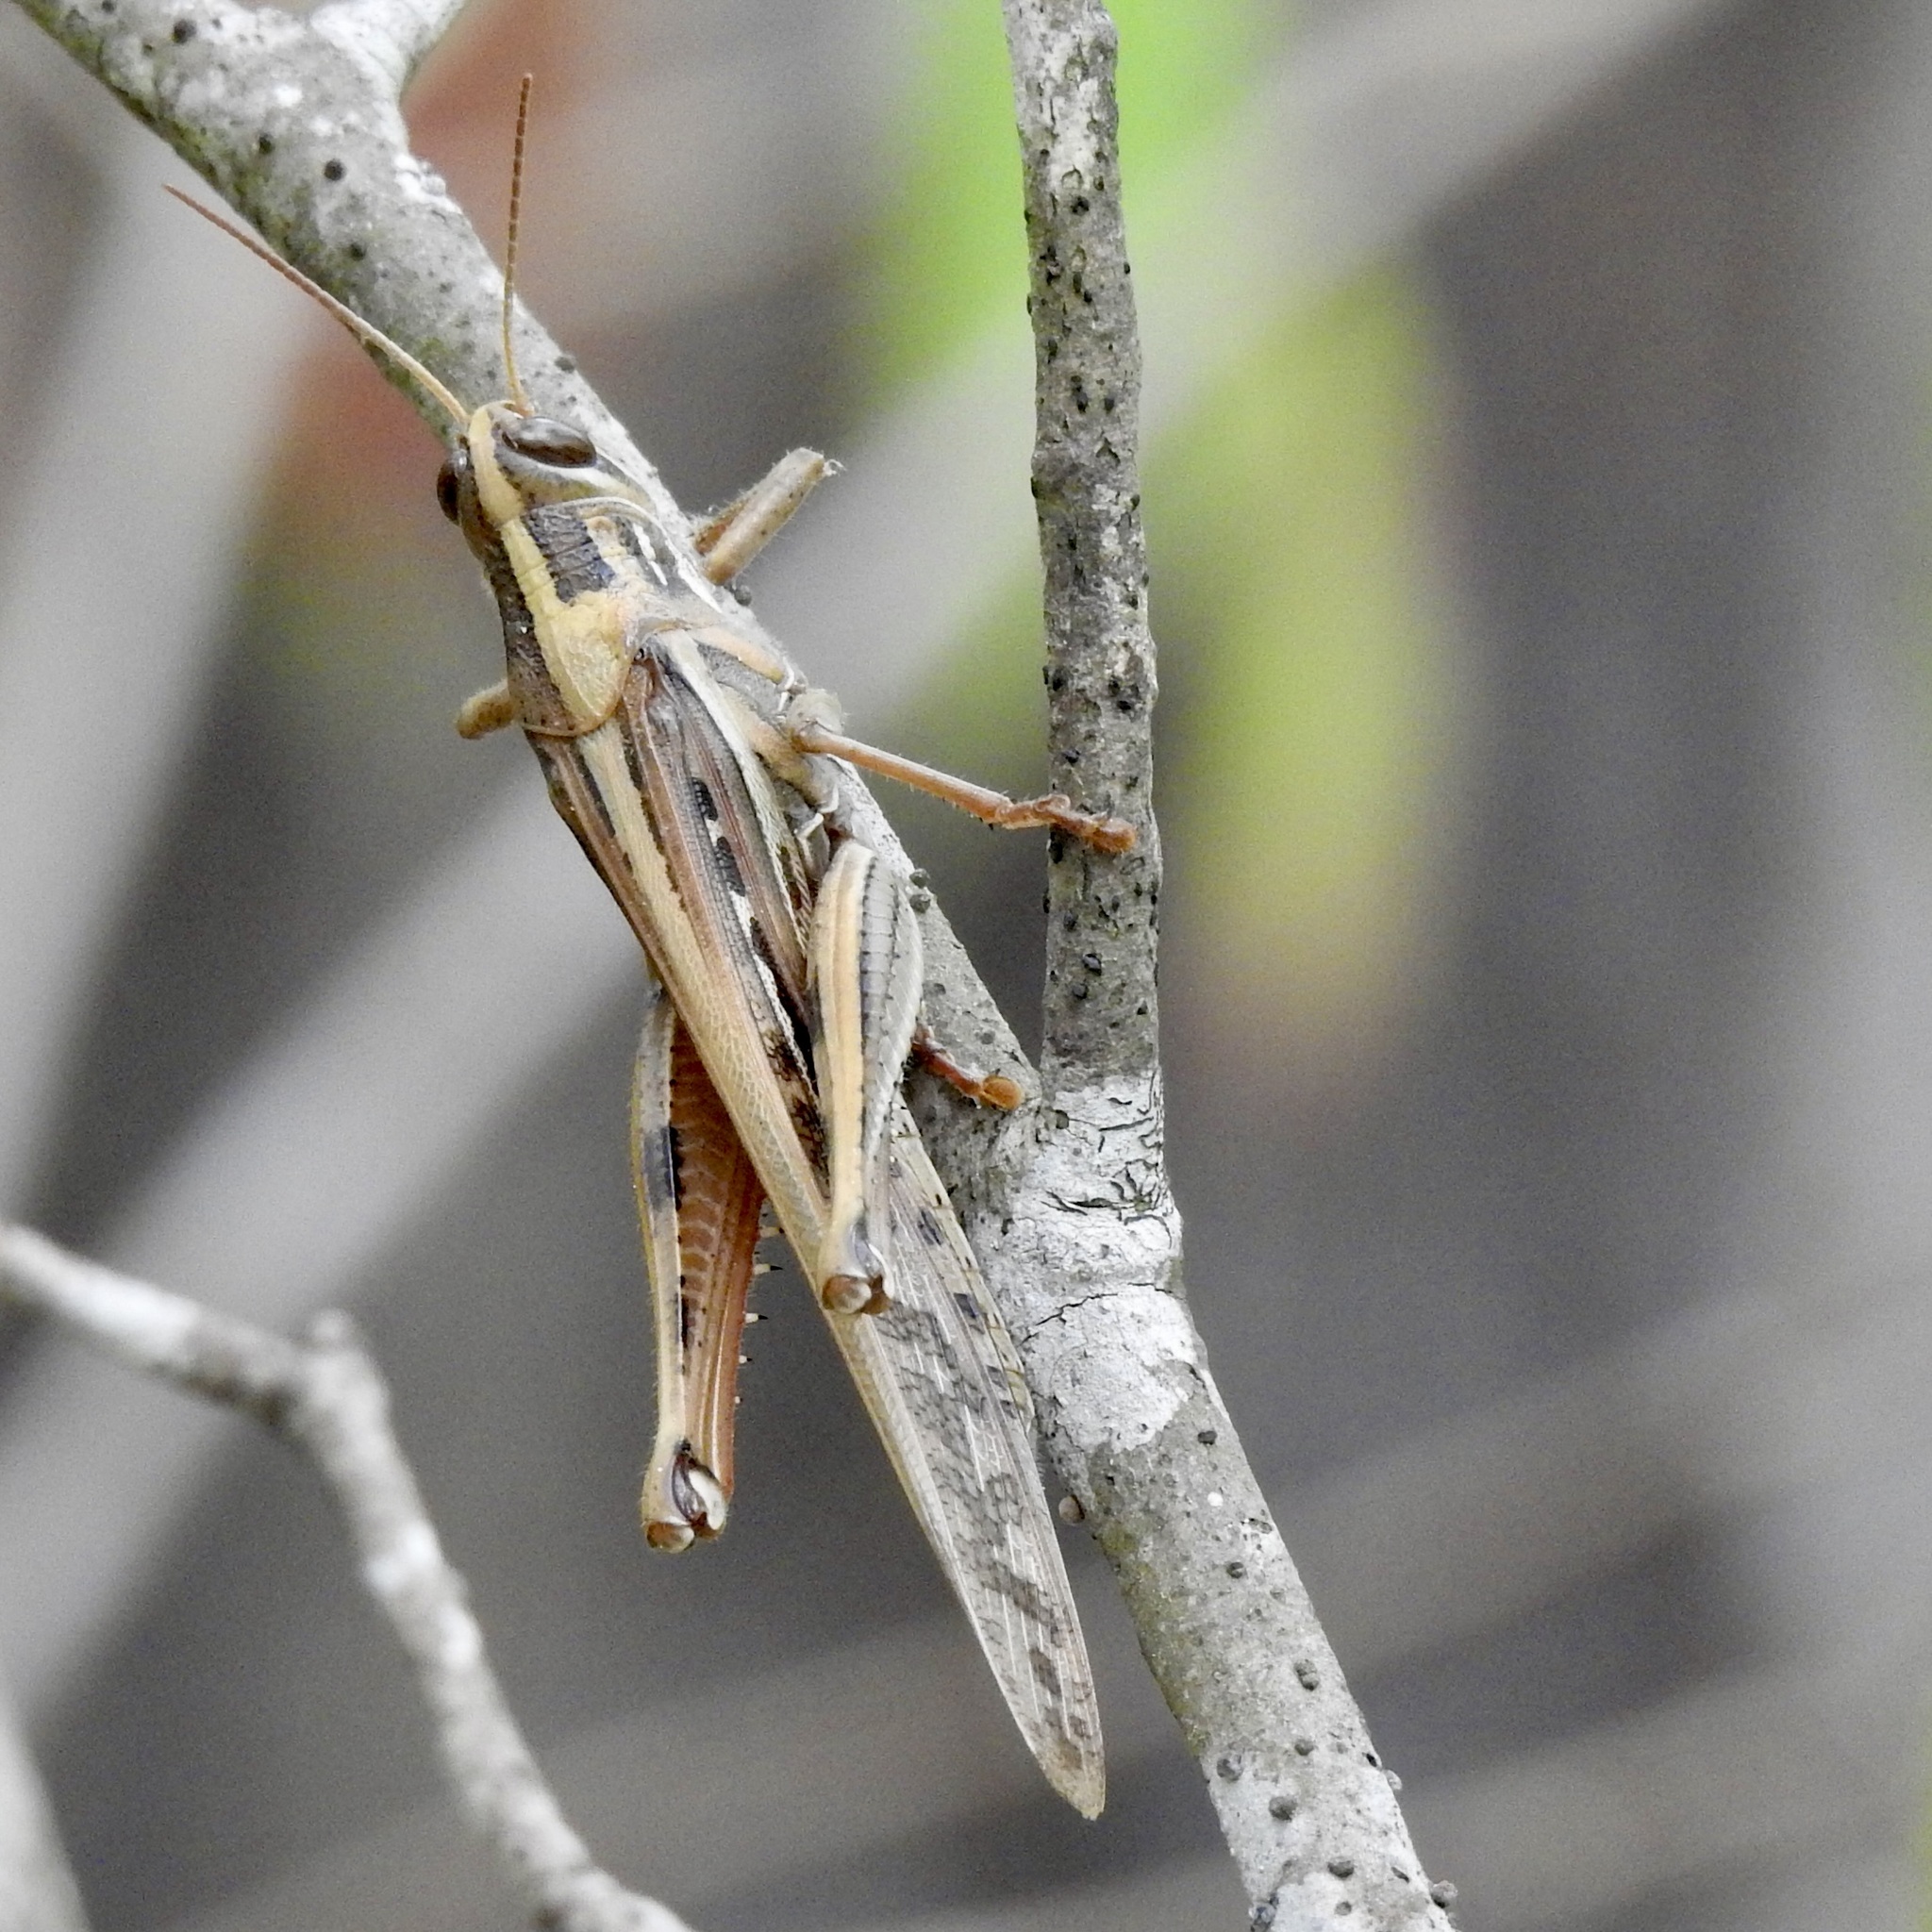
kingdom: Animalia
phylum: Arthropoda
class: Insecta
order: Orthoptera
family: Acrididae
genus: Schistocerca
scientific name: Schistocerca americana
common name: American bird locust
